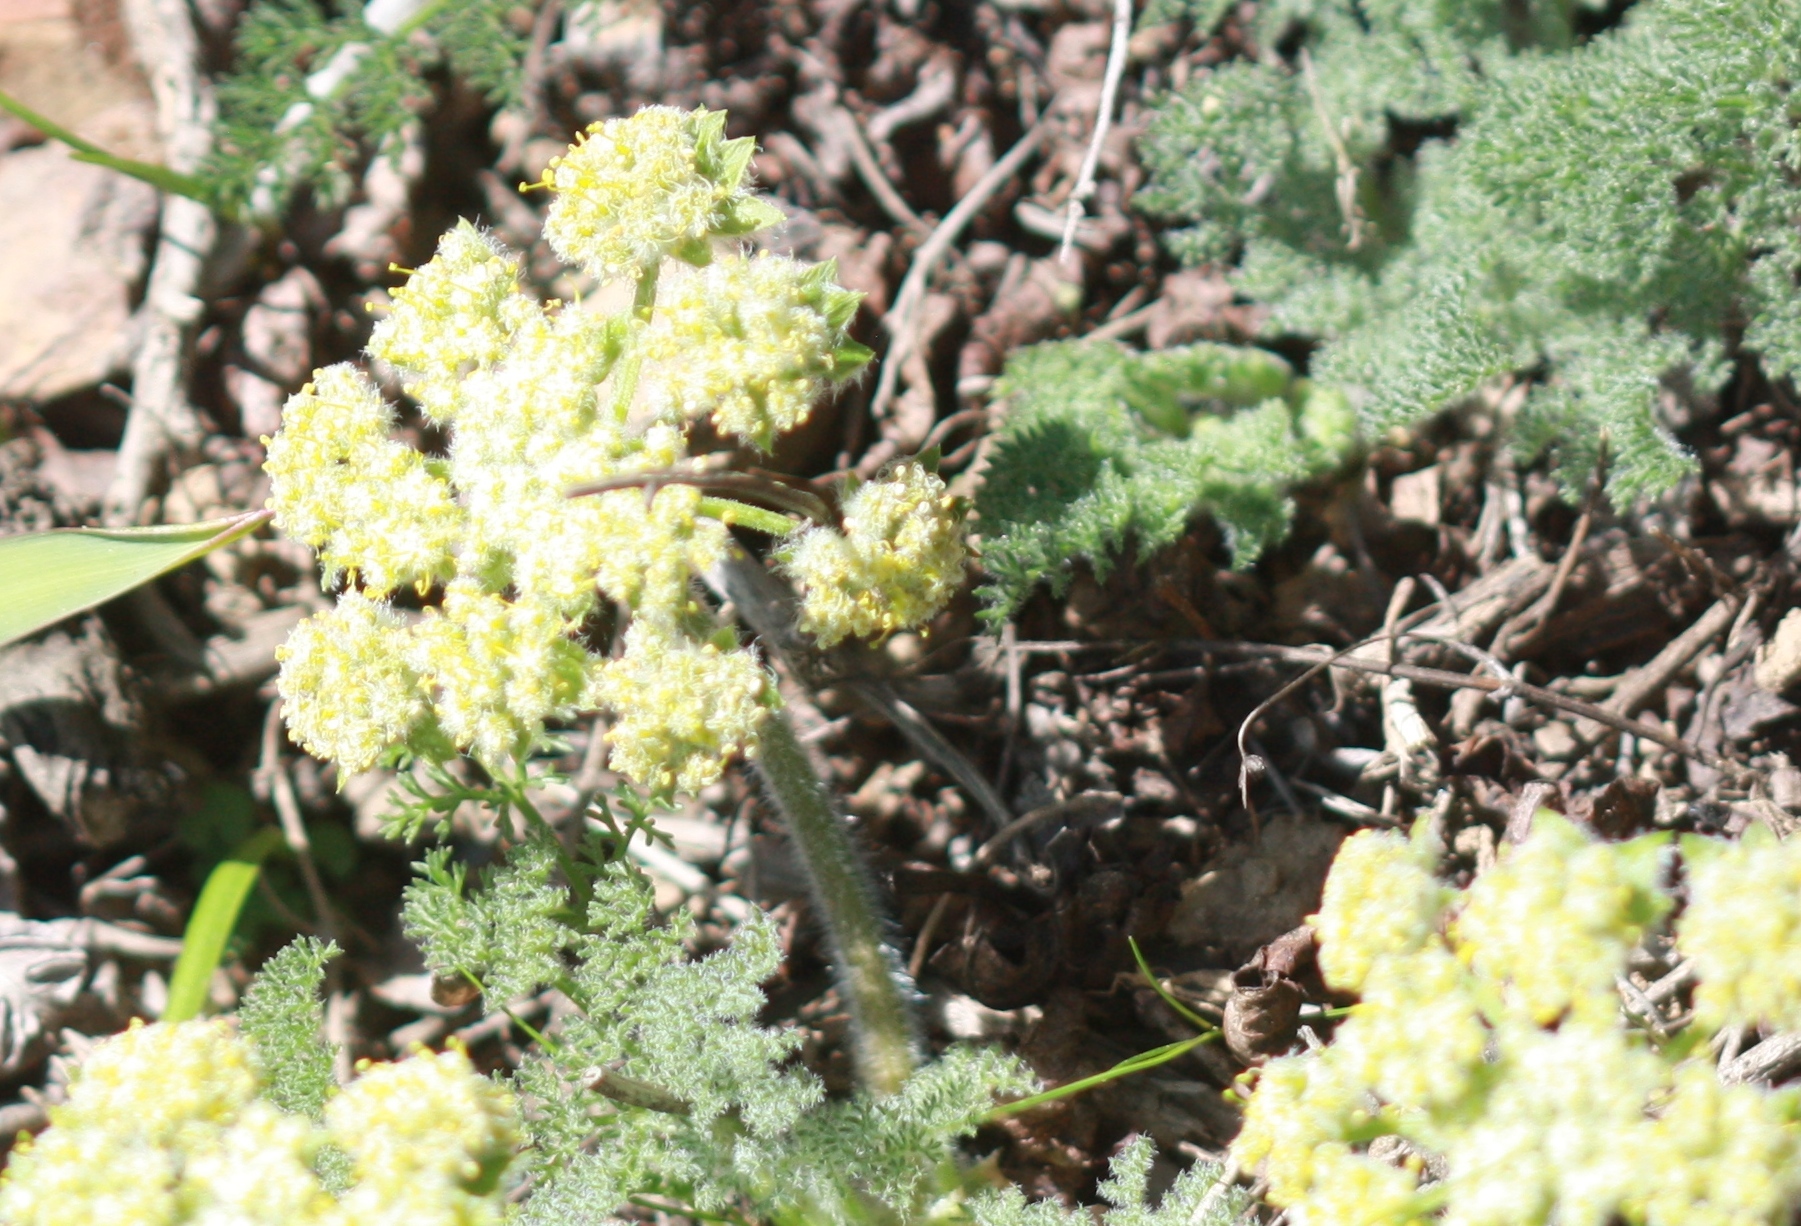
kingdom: Plantae
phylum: Tracheophyta
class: Magnoliopsida
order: Apiales
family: Apiaceae
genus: Lomatium
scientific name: Lomatium dasycarpum
